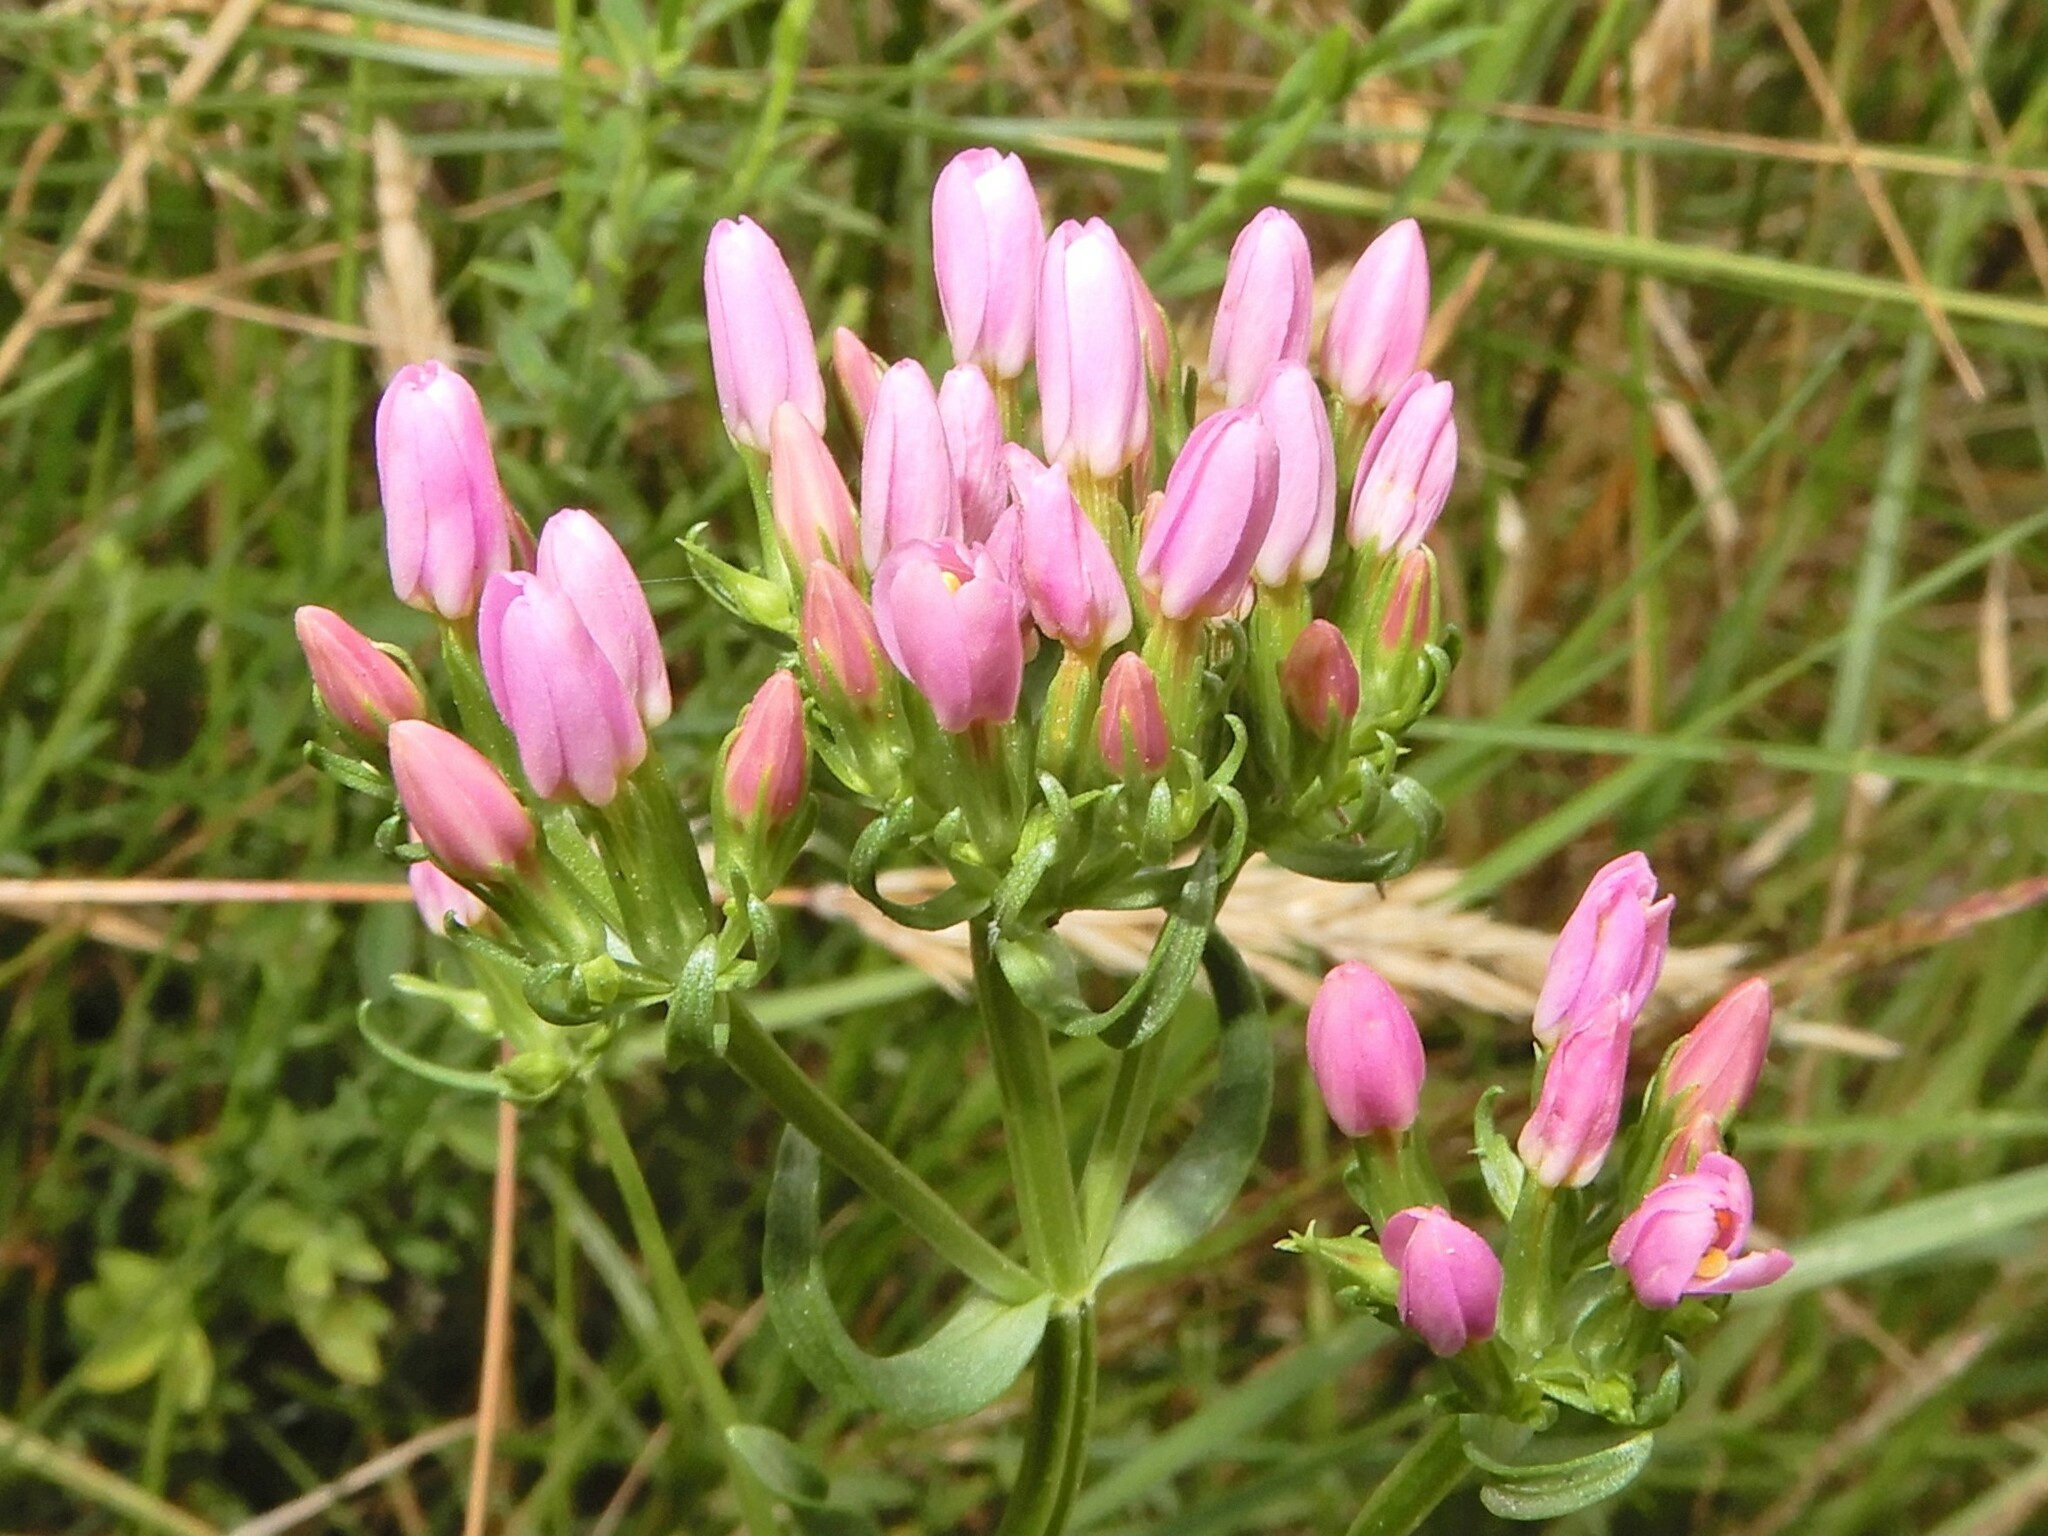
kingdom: Plantae
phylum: Tracheophyta
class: Magnoliopsida
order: Gentianales
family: Gentianaceae
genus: Centaurium
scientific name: Centaurium erythraea
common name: Common centaury
